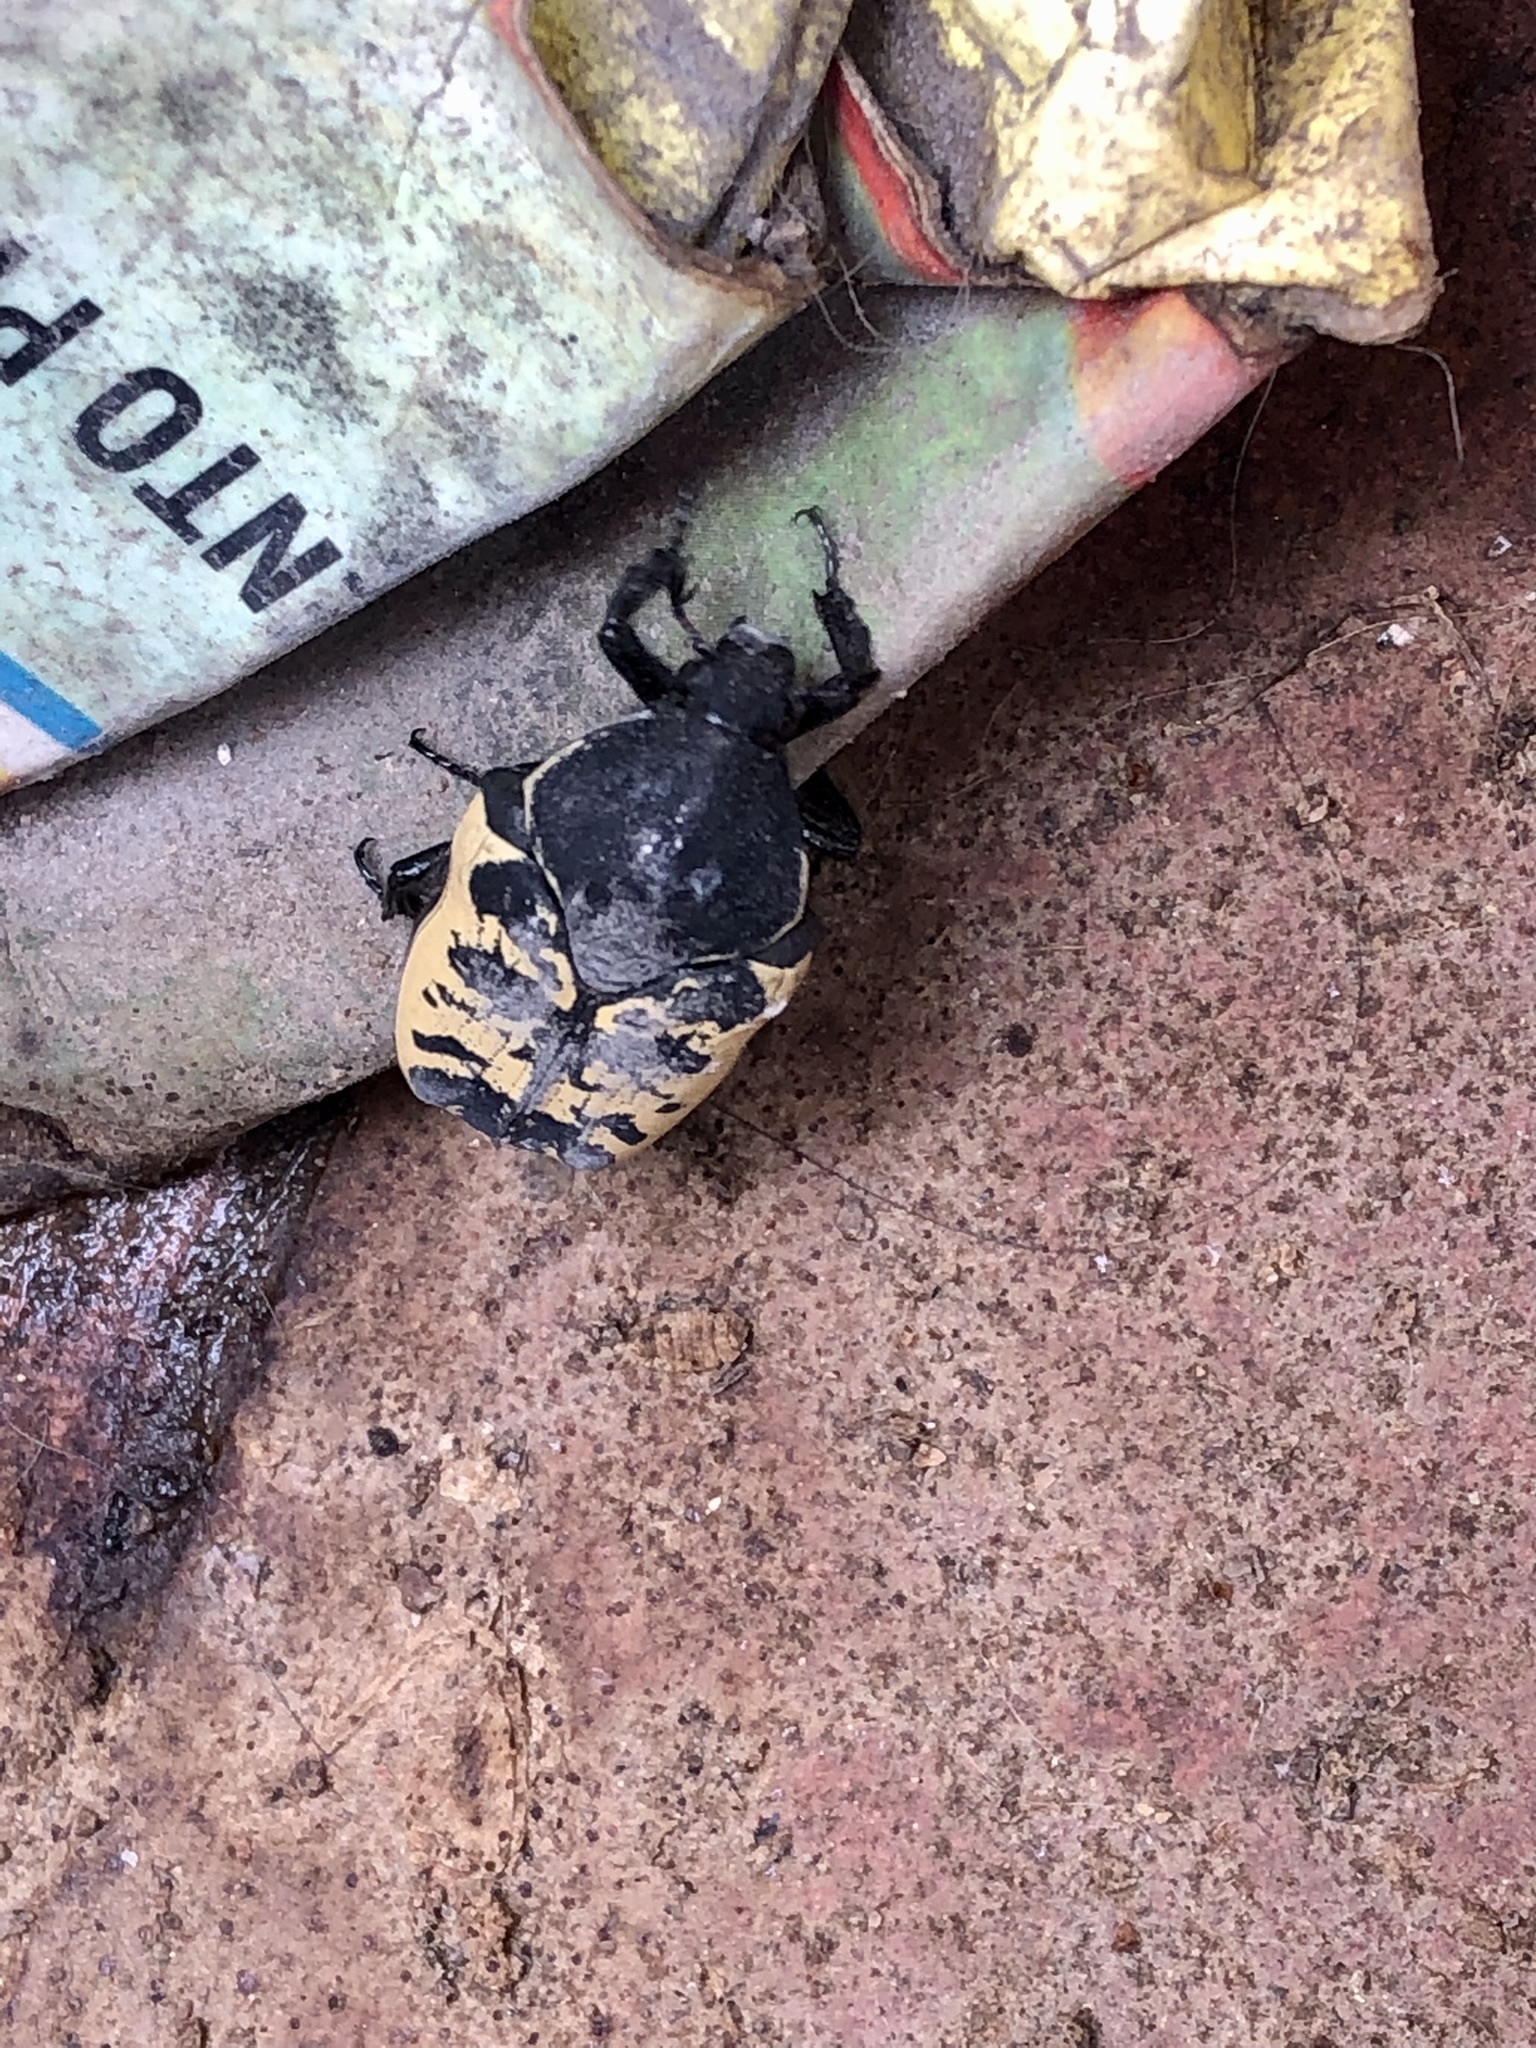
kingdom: Animalia
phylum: Arthropoda
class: Insecta
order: Coleoptera
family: Scarabaeidae
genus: Gymnetis
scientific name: Gymnetis merops
